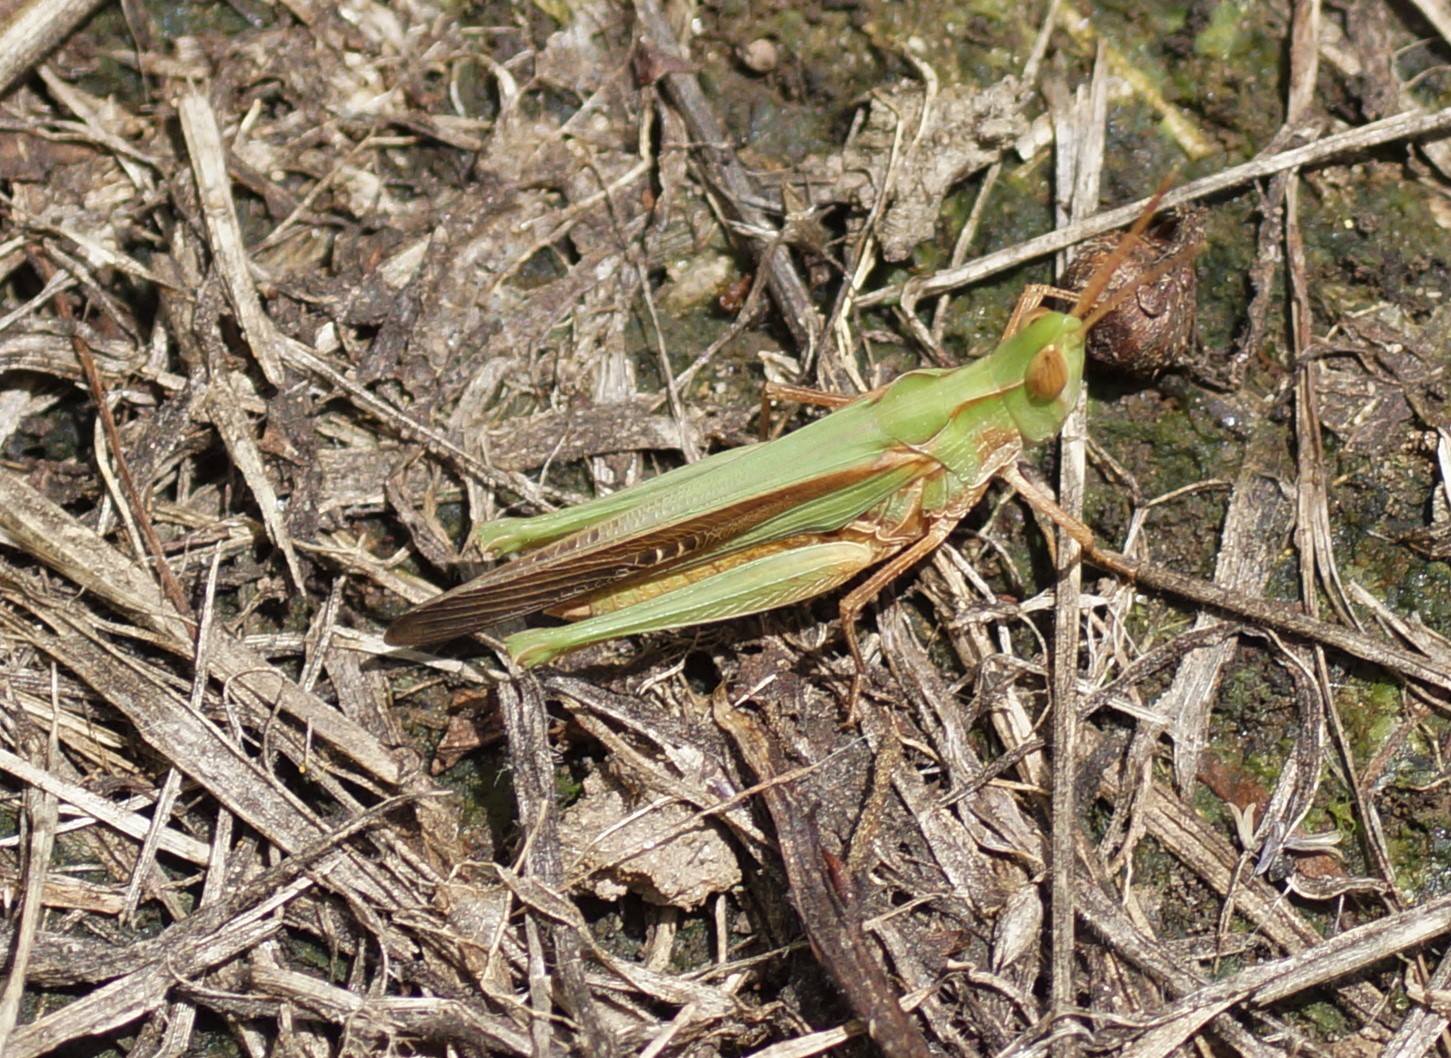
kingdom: Animalia
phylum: Arthropoda
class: Insecta
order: Orthoptera
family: Acrididae
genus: Froggattina
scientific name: Froggattina australis
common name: Froggatt's buzzer
